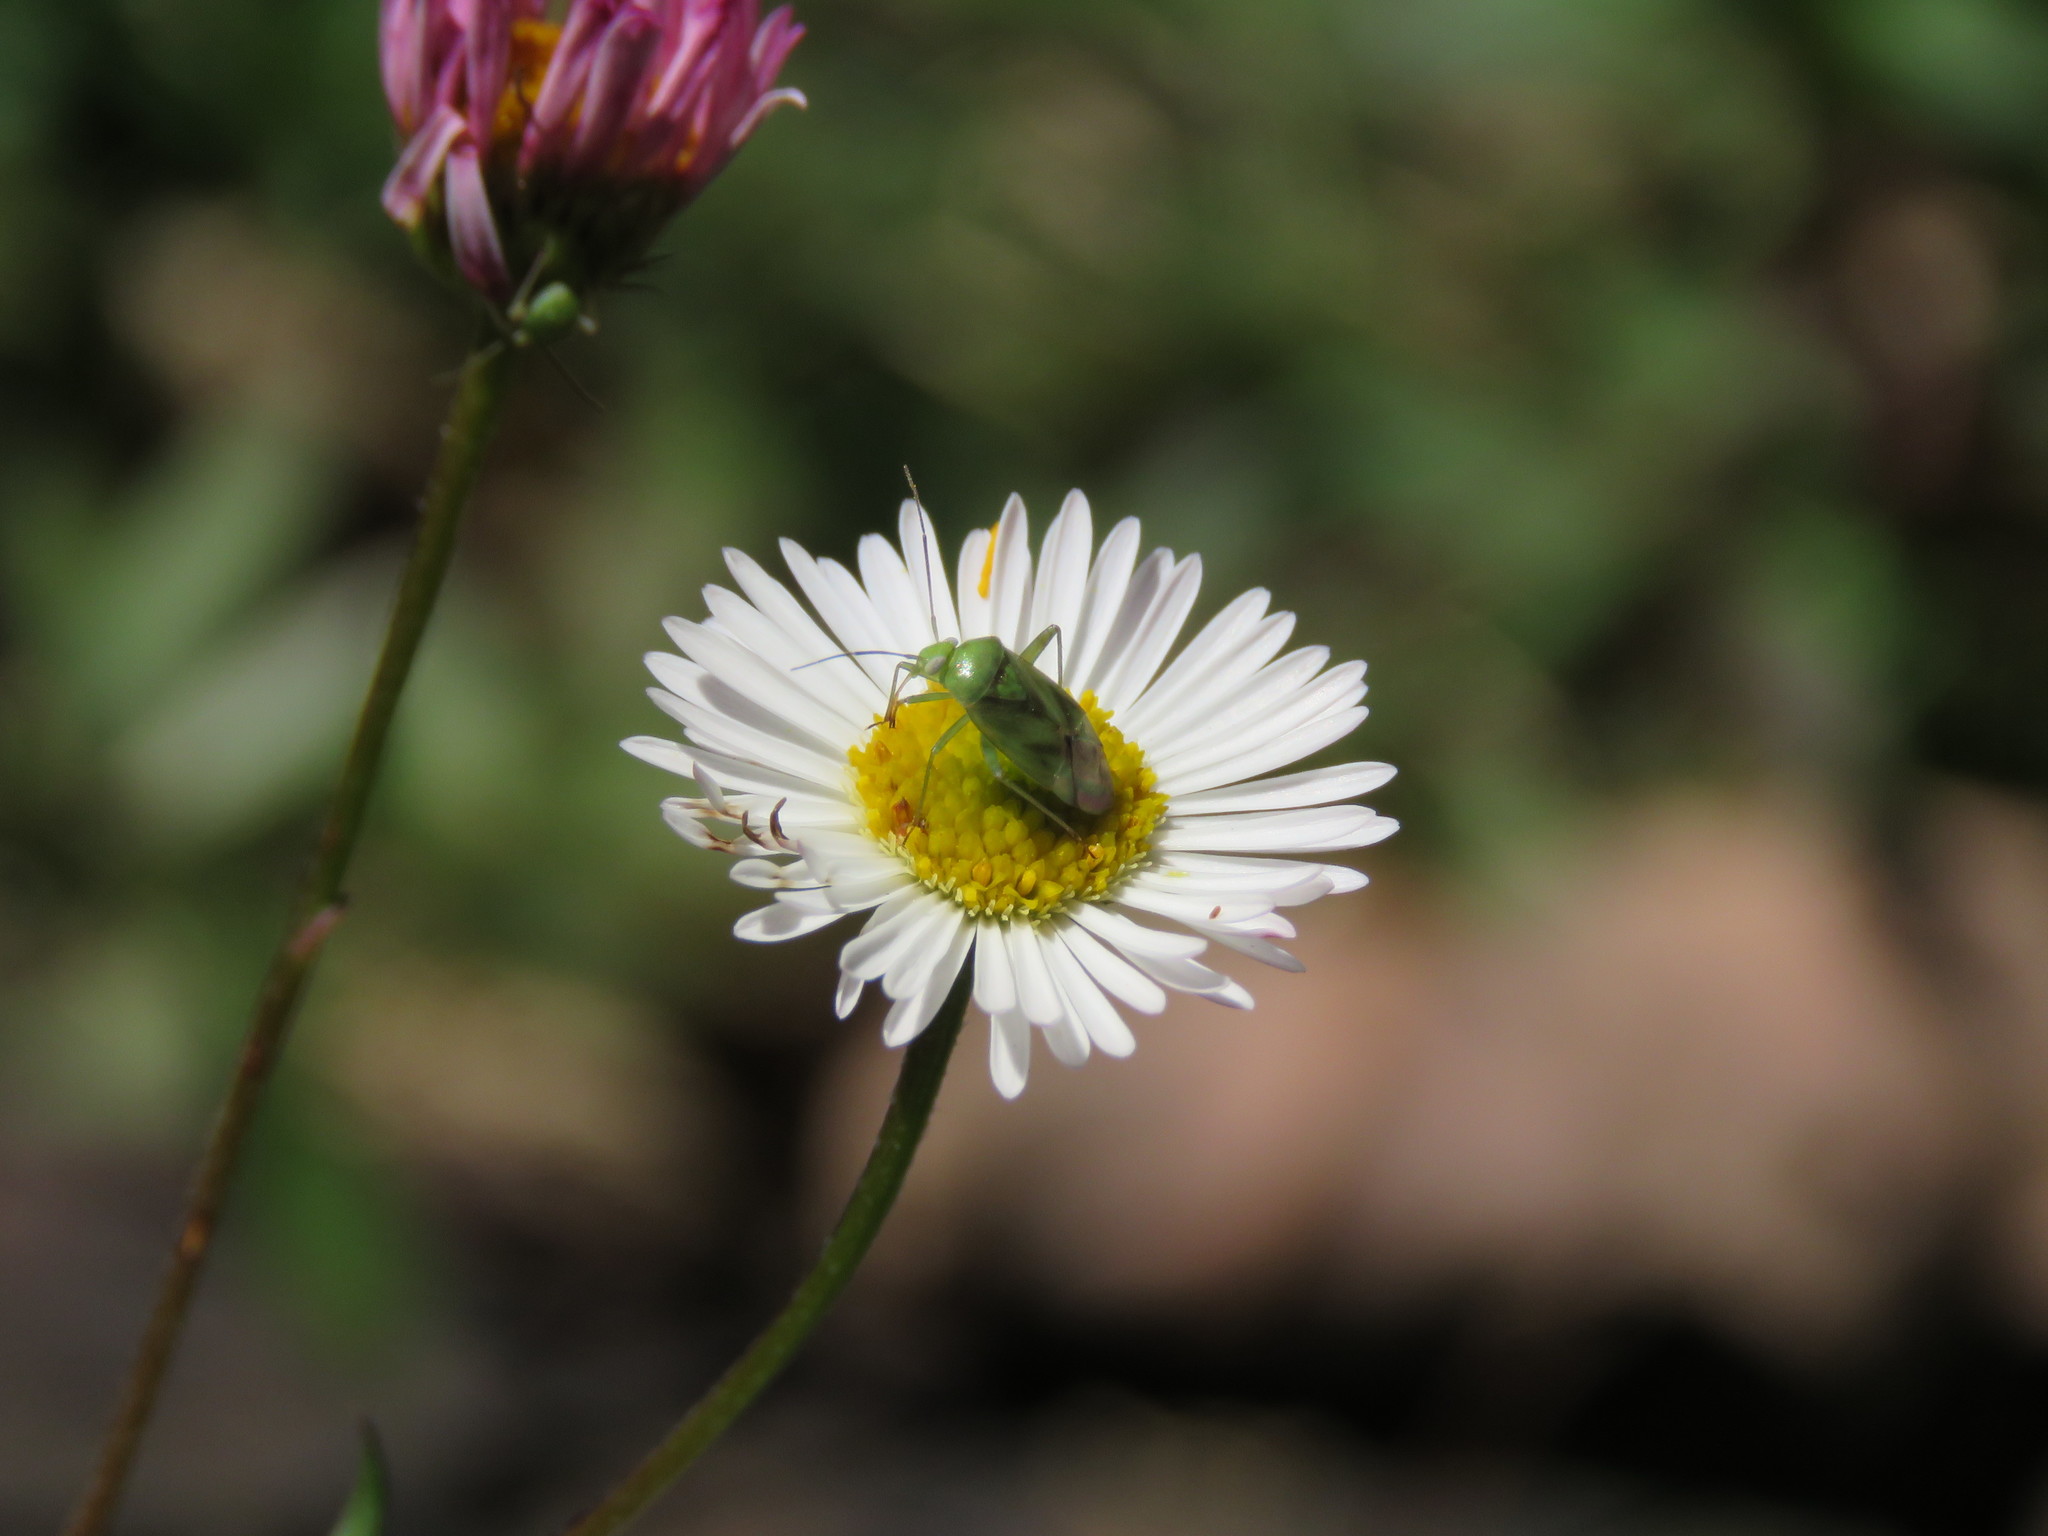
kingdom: Animalia
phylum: Arthropoda
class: Insecta
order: Hemiptera
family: Miridae
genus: Taylorilygus
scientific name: Taylorilygus apicalis
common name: Plant bug
